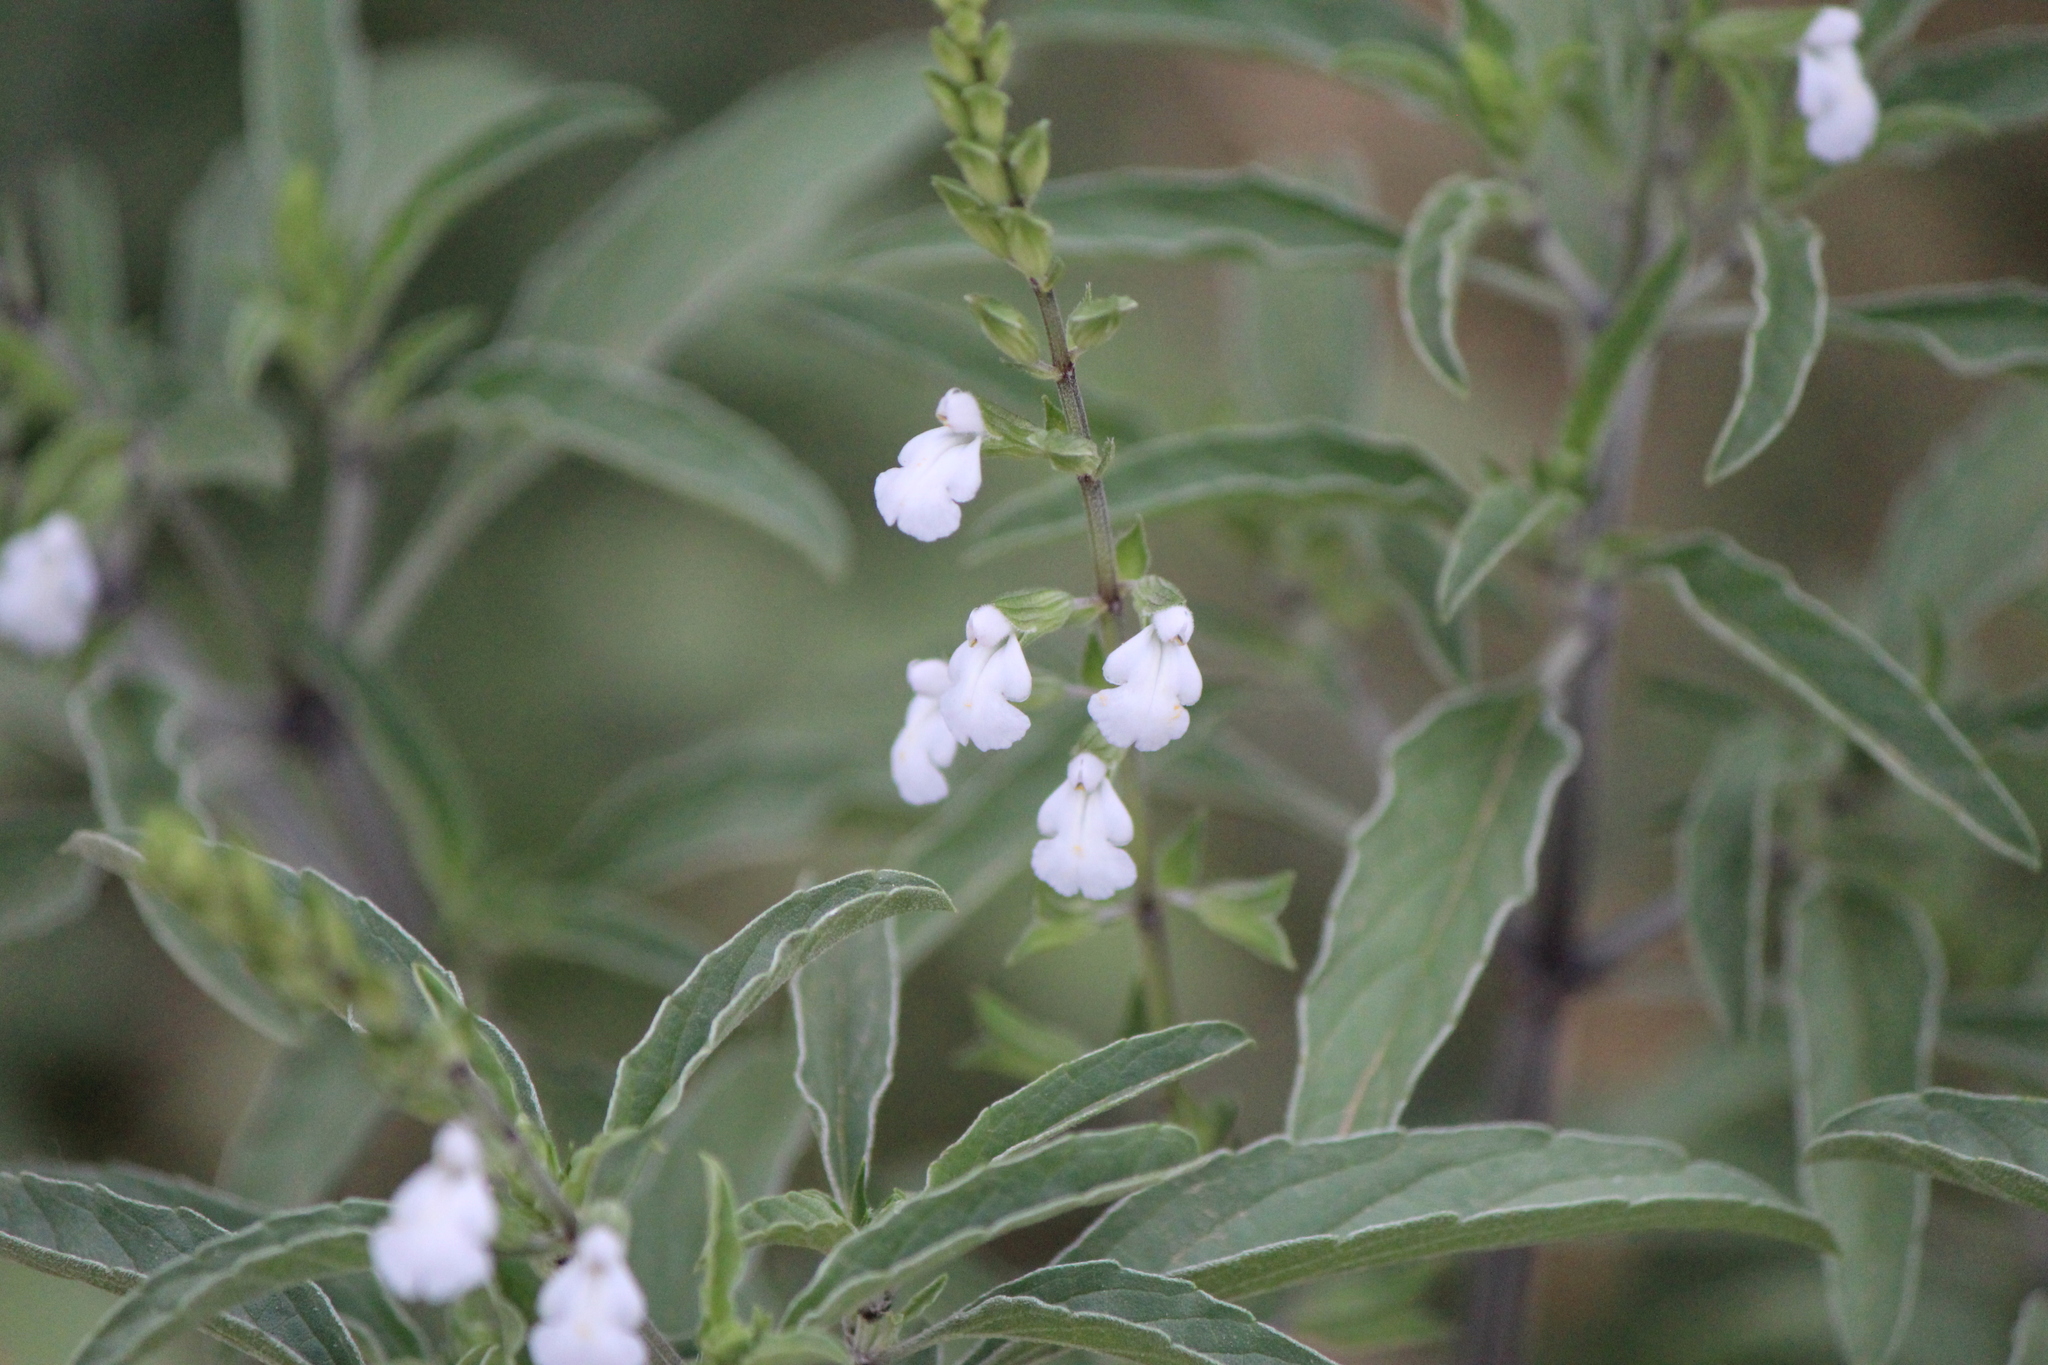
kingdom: Plantae
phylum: Tracheophyta
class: Magnoliopsida
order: Lamiales
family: Lamiaceae
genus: Salvia
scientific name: Salvia reflexa
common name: Mintweed
